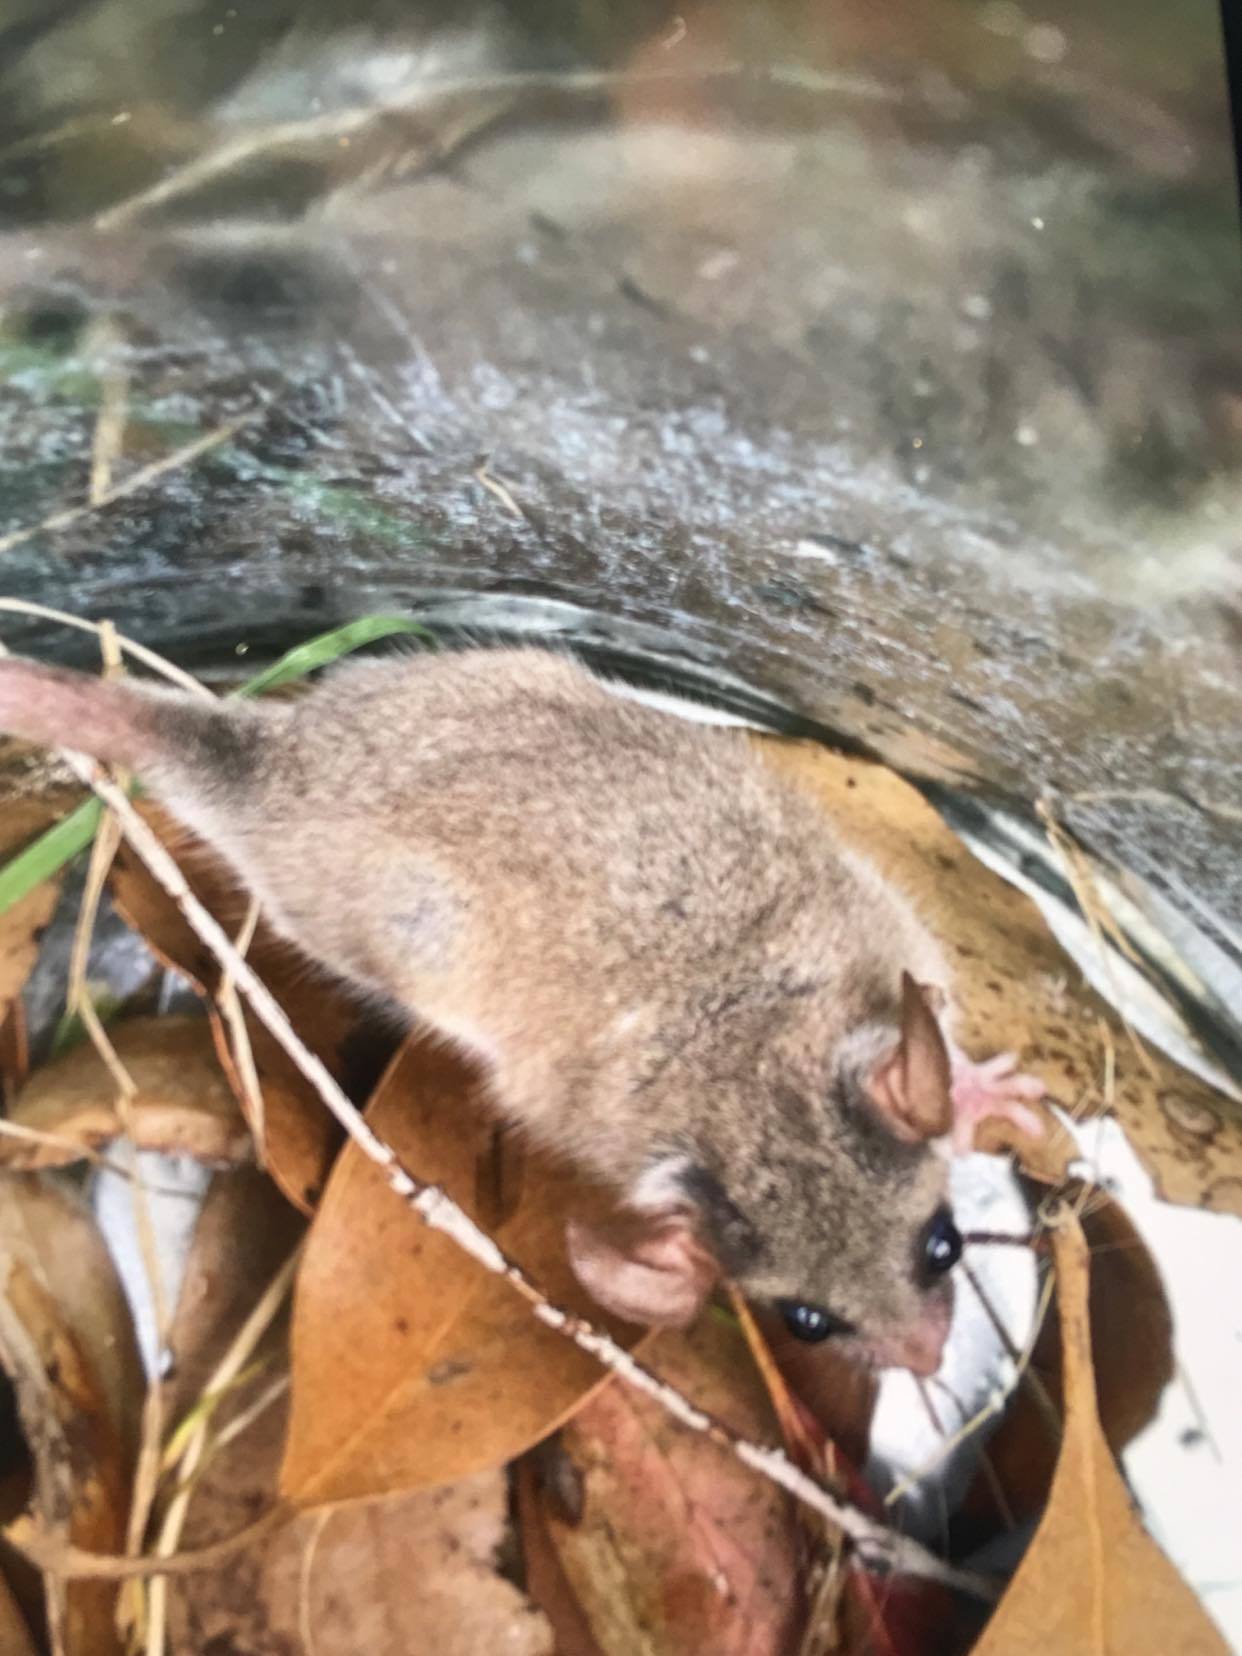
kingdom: Animalia
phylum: Chordata
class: Mammalia
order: Diprotodontia
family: Burramyidae
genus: Cercartetus
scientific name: Cercartetus nanus
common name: Eastern pygmy possum
